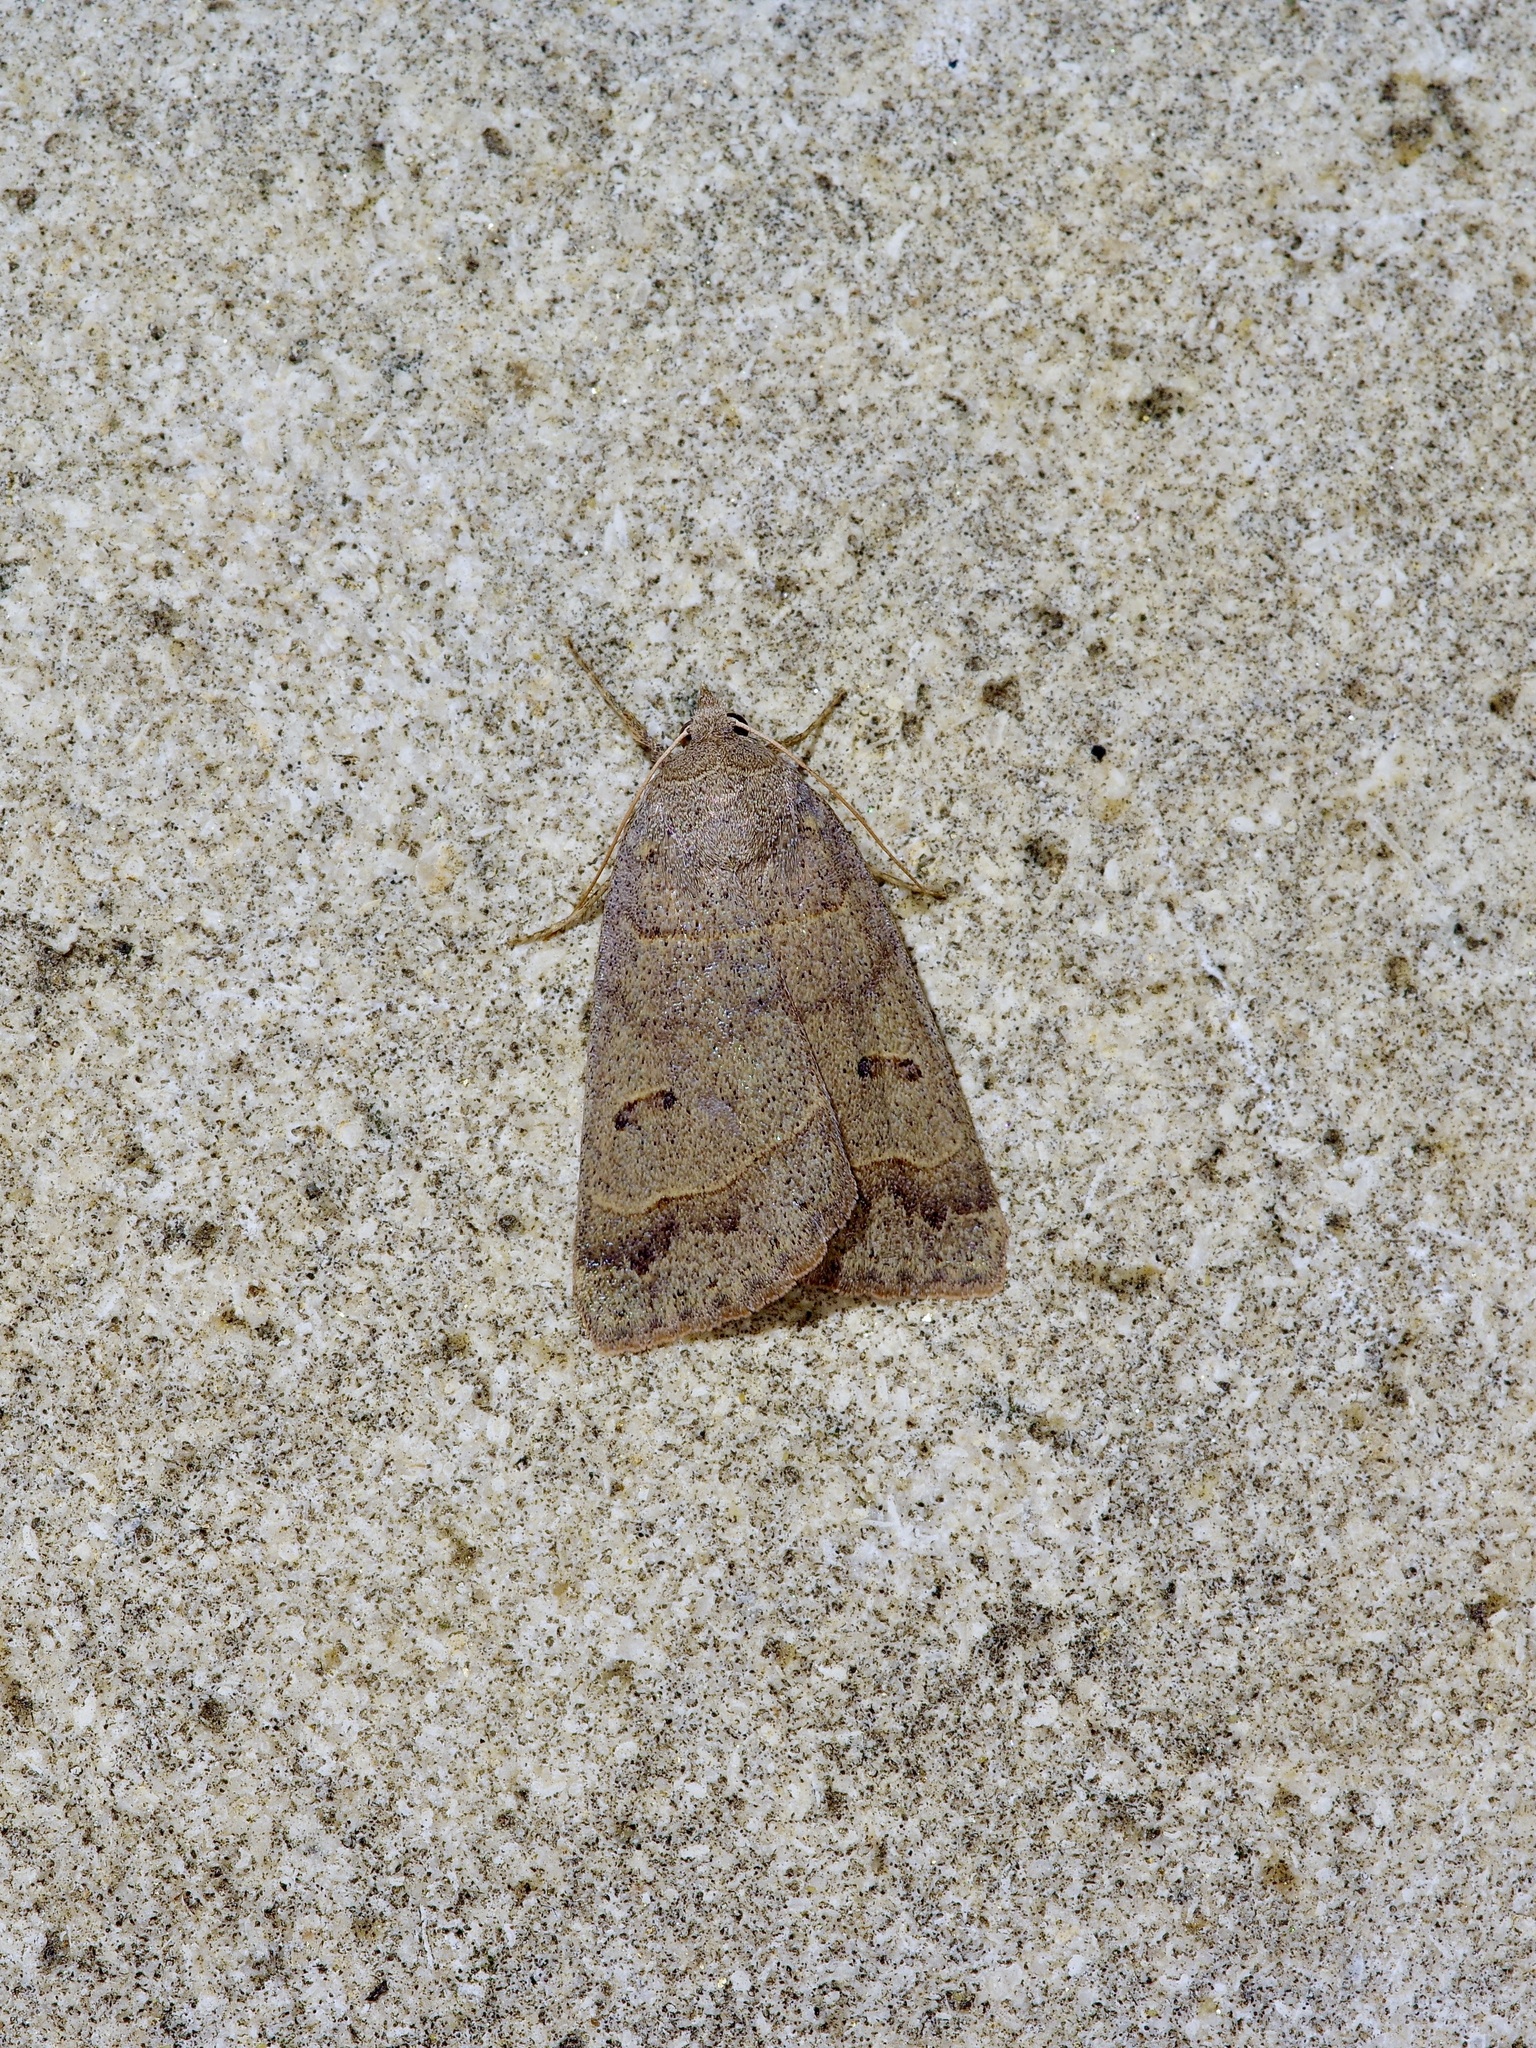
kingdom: Animalia
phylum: Arthropoda
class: Insecta
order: Lepidoptera
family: Erebidae
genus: Phoberia
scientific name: Phoberia atomaris
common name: Common oak moth
